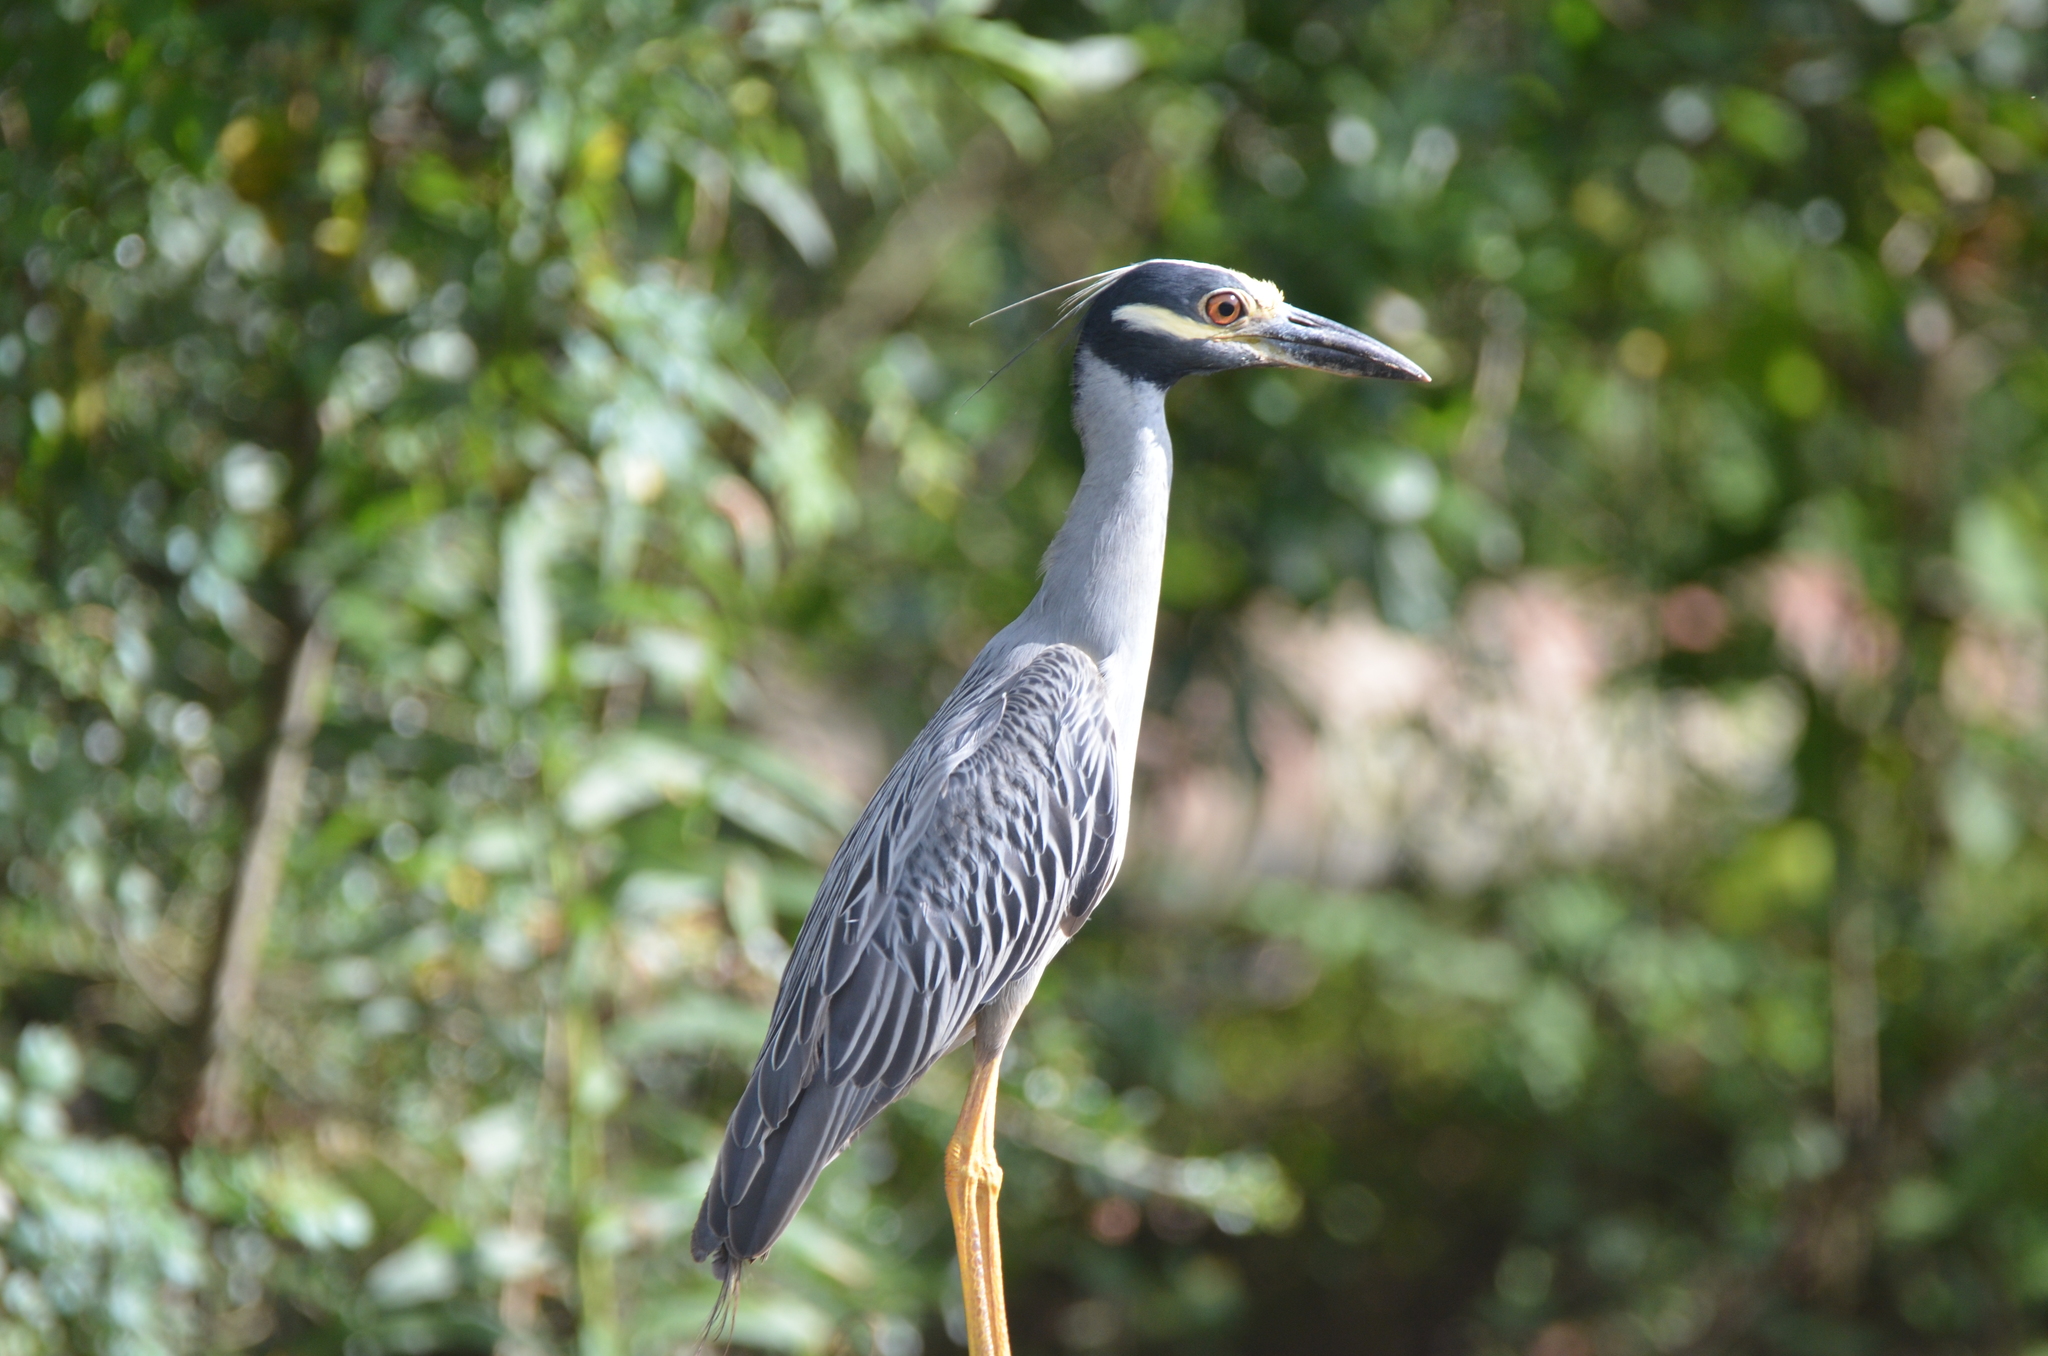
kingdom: Animalia
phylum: Chordata
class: Aves
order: Pelecaniformes
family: Ardeidae
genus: Nyctanassa
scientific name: Nyctanassa violacea
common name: Yellow-crowned night heron
